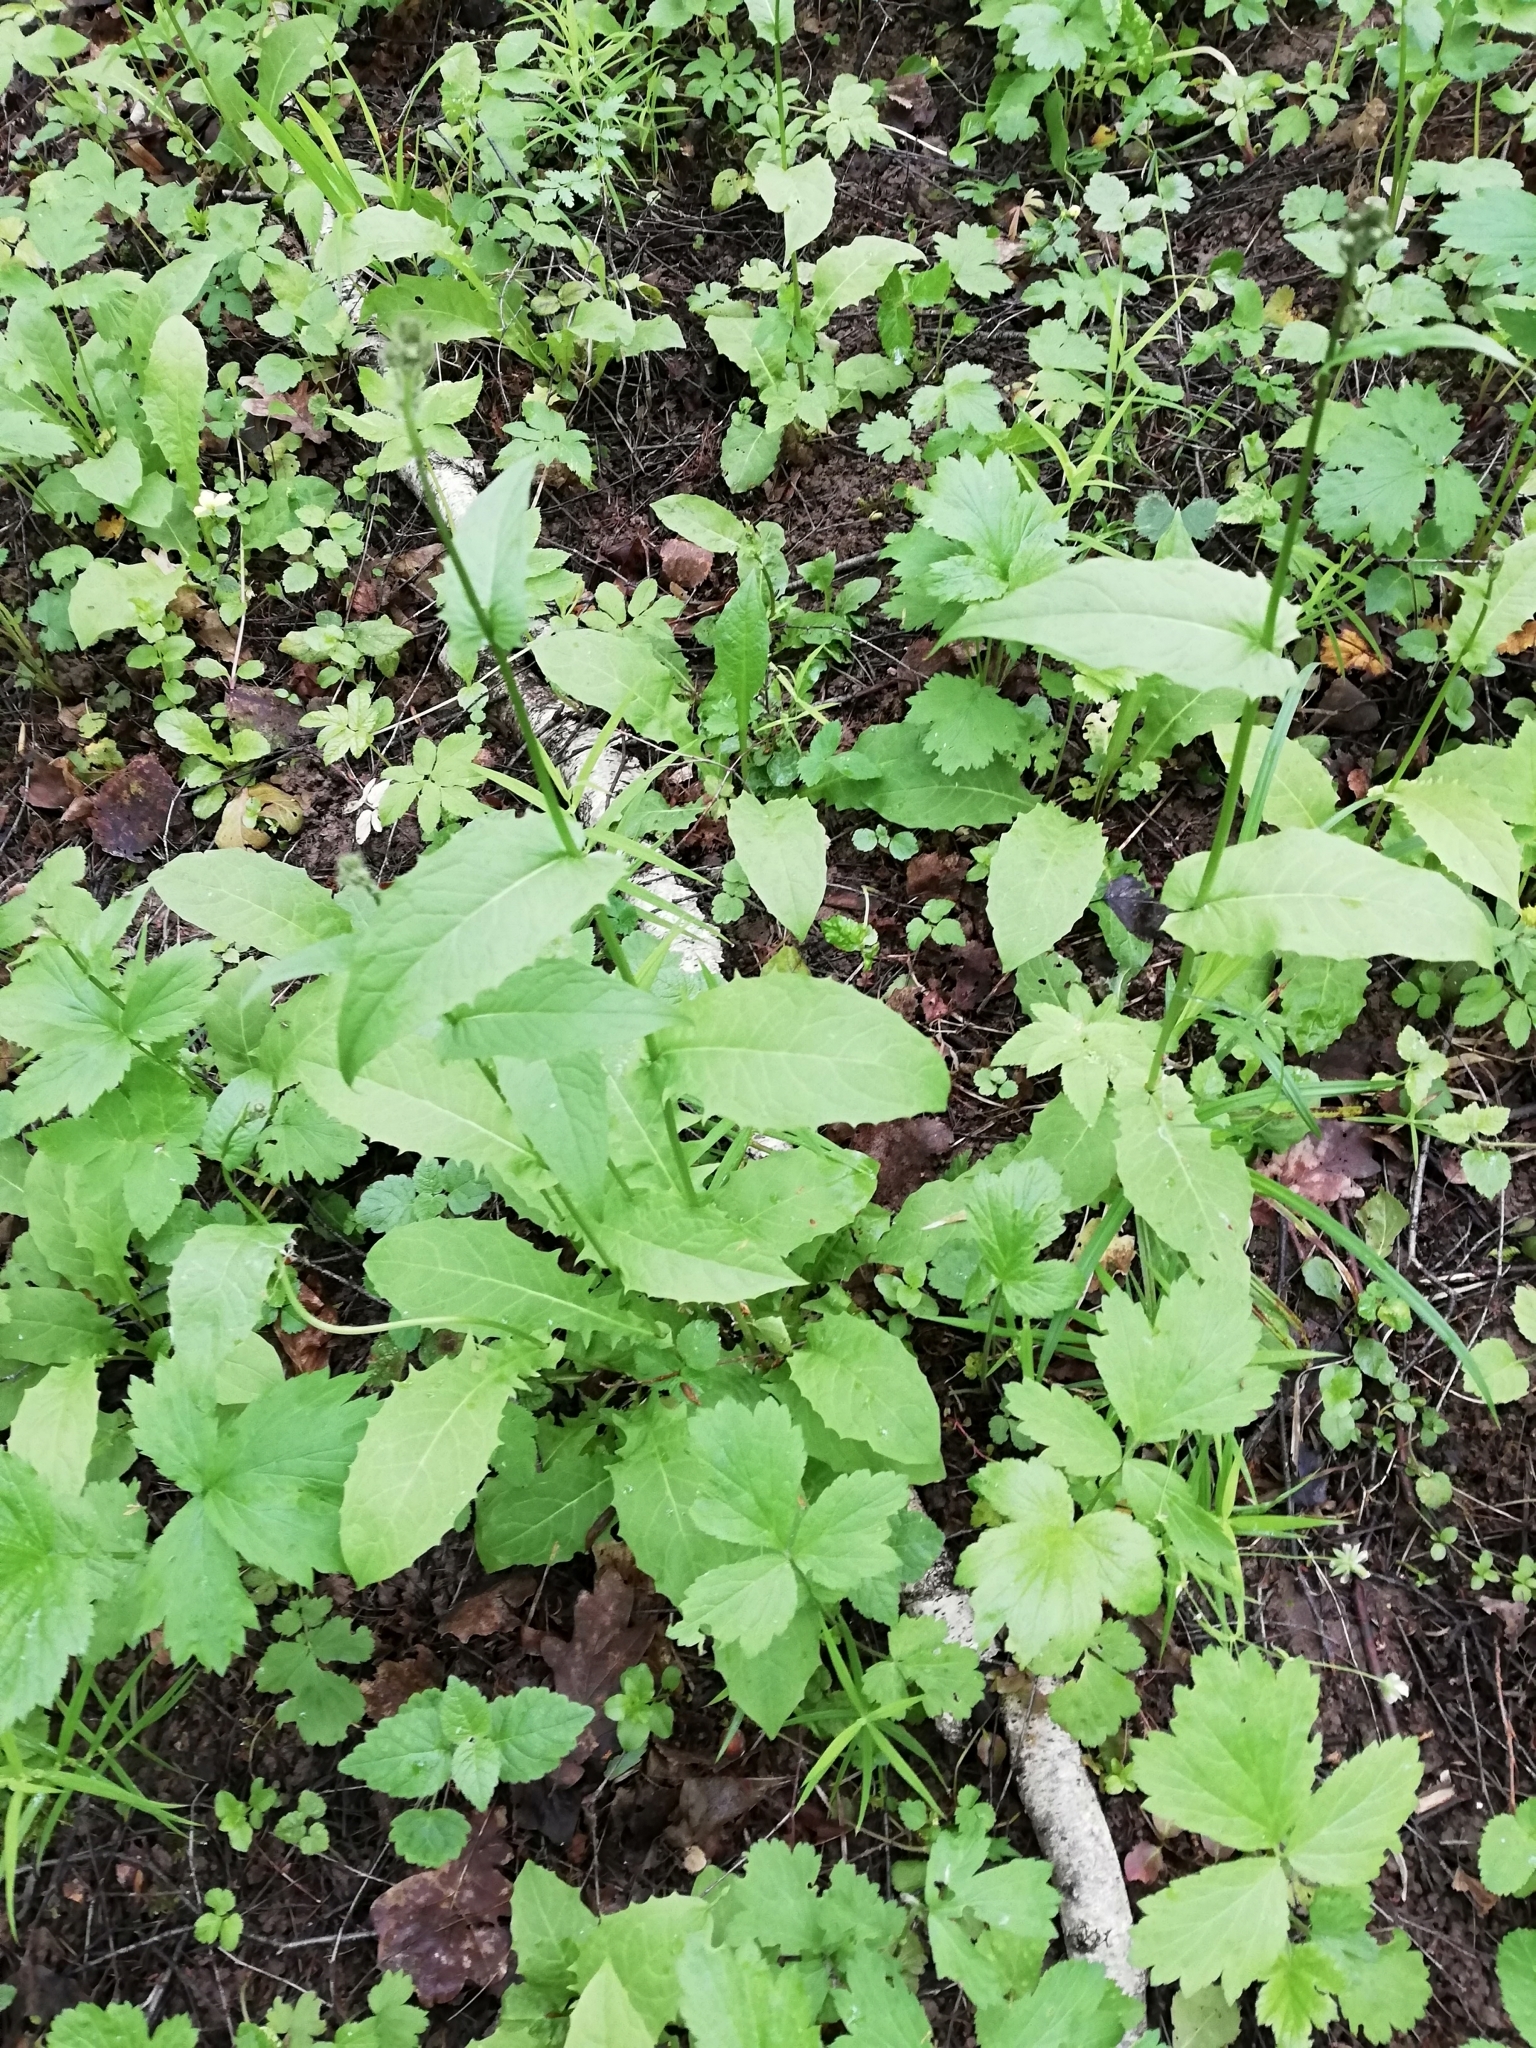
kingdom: Plantae
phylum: Tracheophyta
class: Magnoliopsida
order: Asterales
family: Asteraceae
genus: Crepis
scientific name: Crepis paludosa
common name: Marsh hawk's-beard
